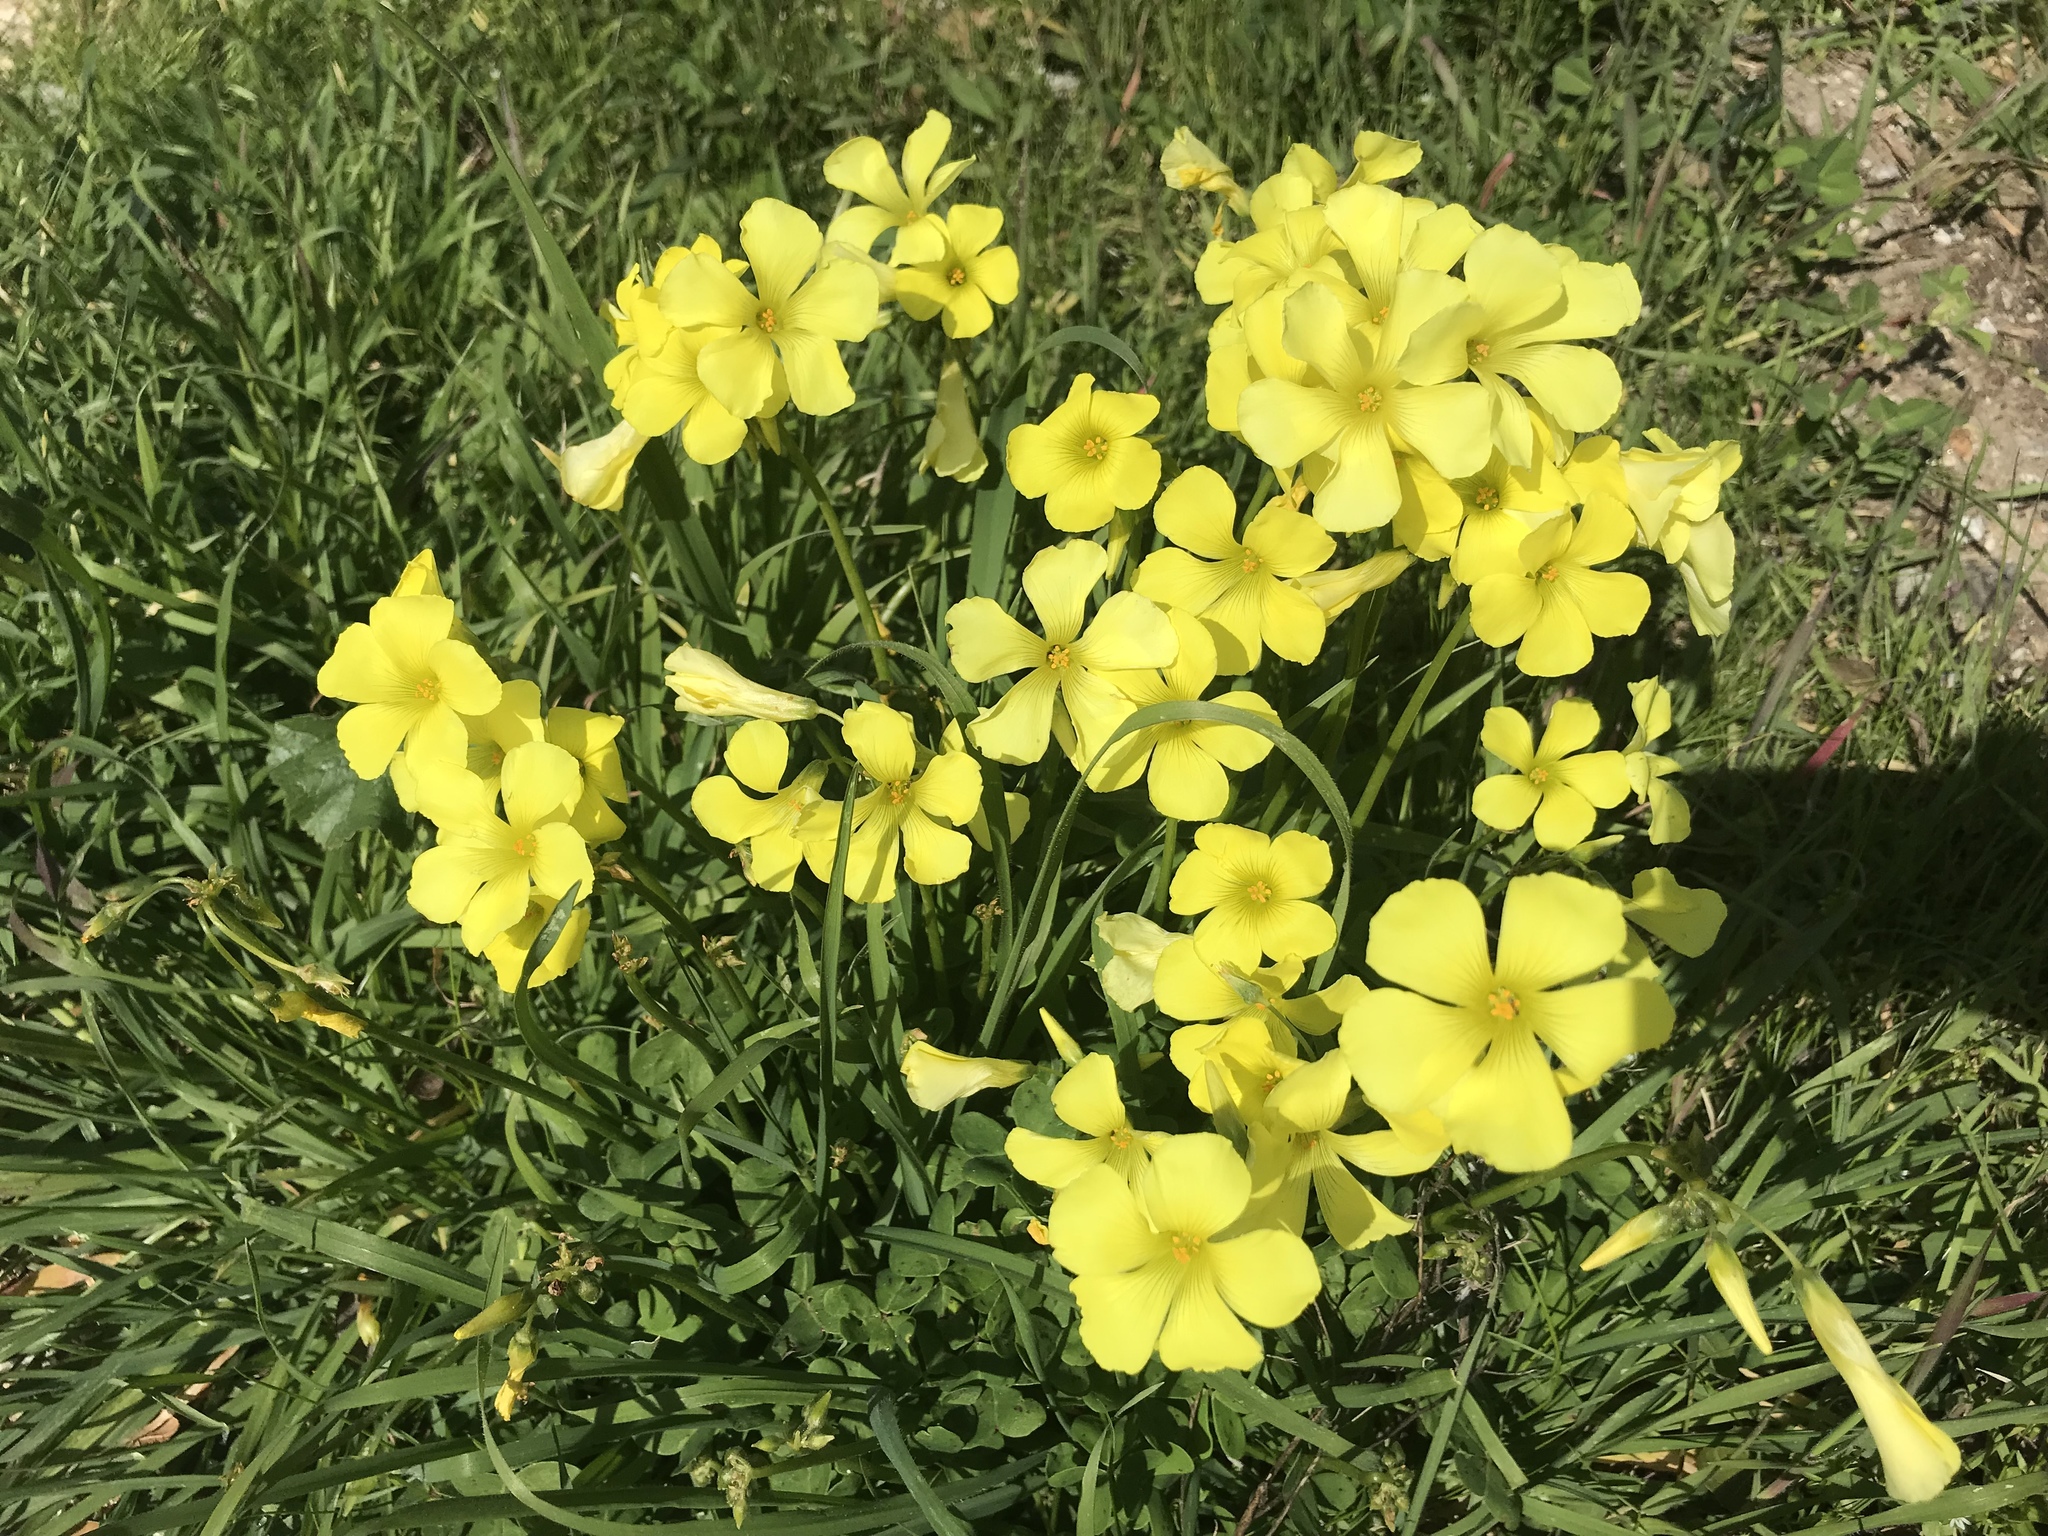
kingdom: Plantae
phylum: Tracheophyta
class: Magnoliopsida
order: Oxalidales
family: Oxalidaceae
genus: Oxalis
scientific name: Oxalis pes-caprae
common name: Bermuda-buttercup
